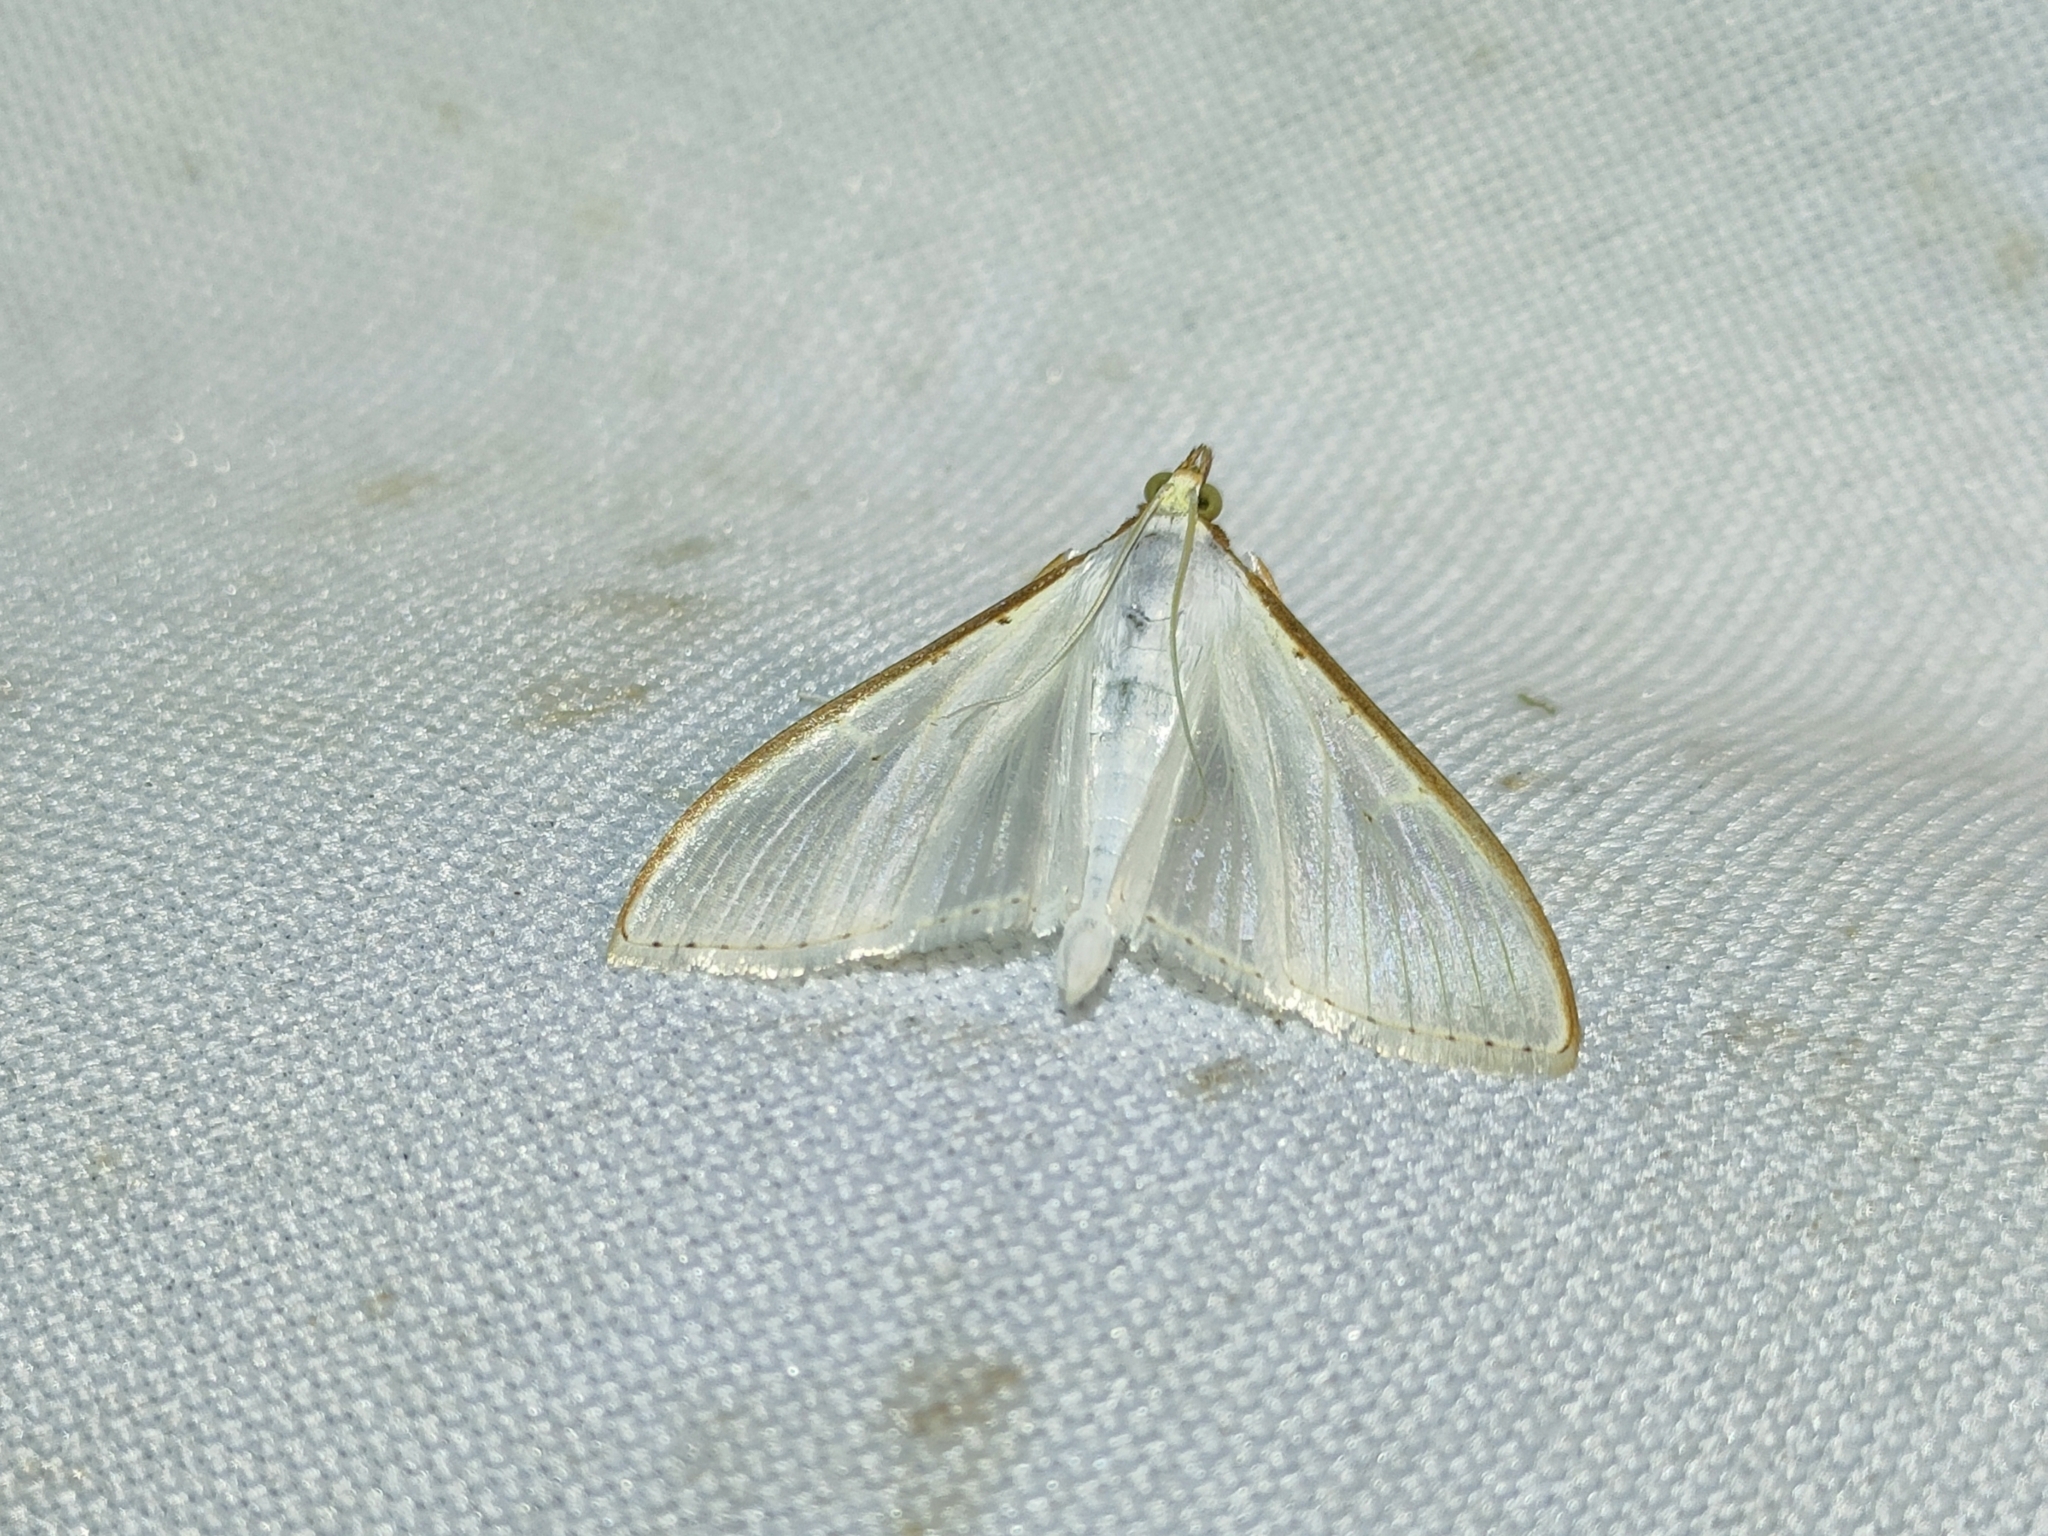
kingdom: Animalia
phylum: Arthropoda
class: Insecta
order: Lepidoptera
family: Crambidae
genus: Palpita
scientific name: Palpita vitrealis
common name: Olive-tree pearl
